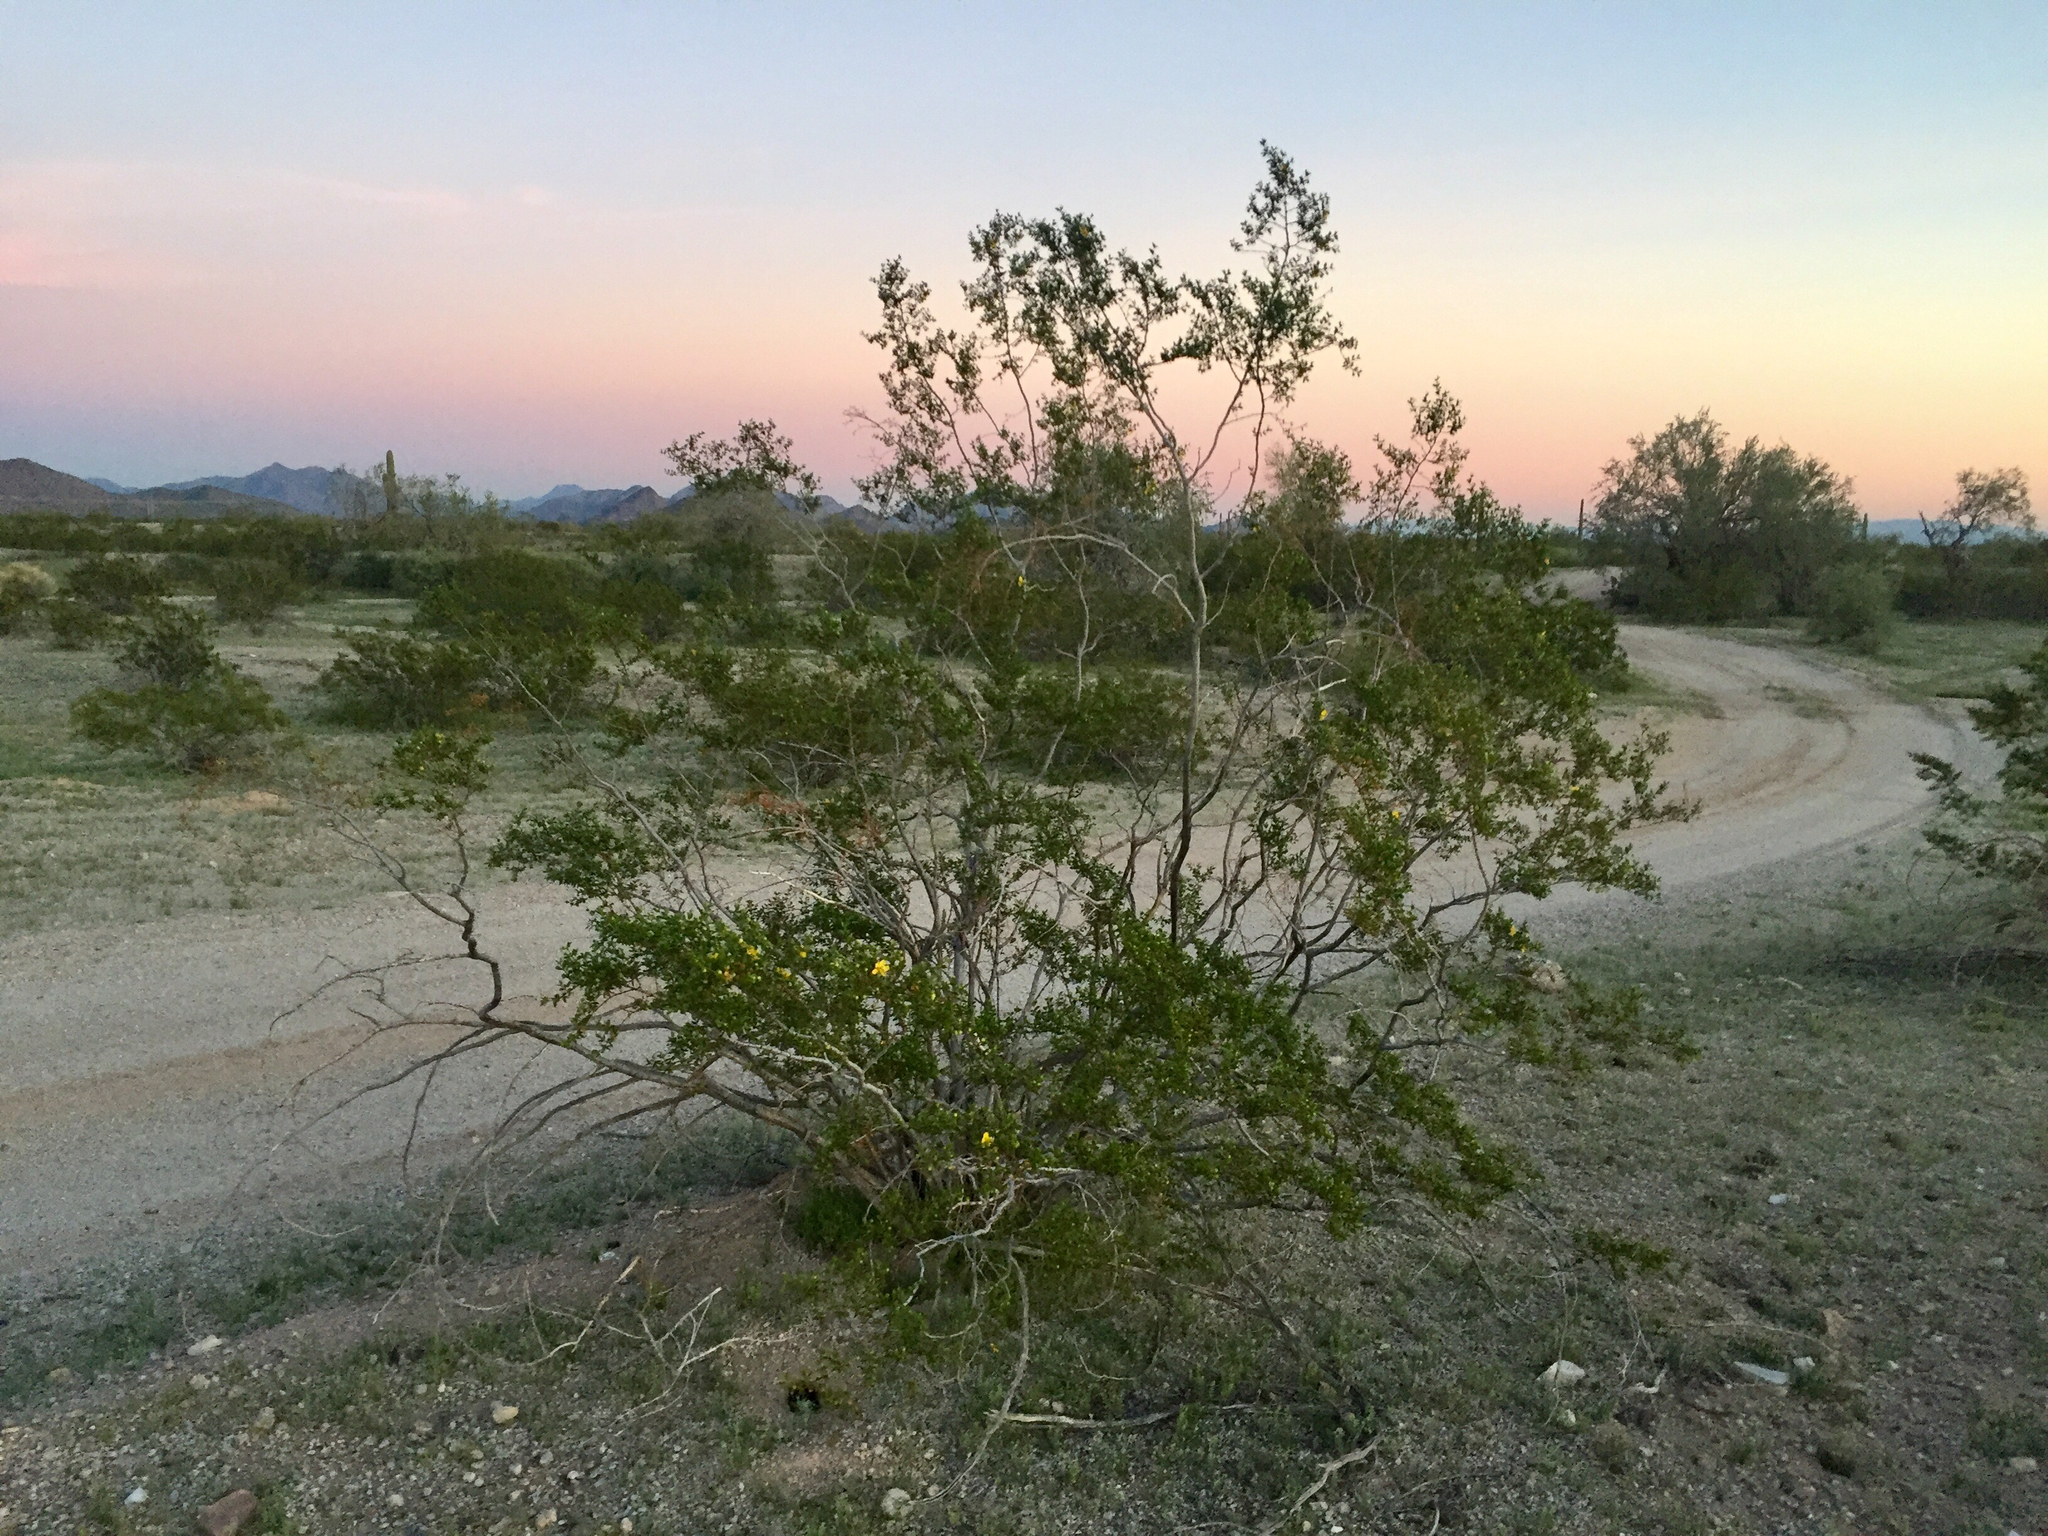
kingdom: Plantae
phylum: Tracheophyta
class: Magnoliopsida
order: Zygophyllales
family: Zygophyllaceae
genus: Larrea
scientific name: Larrea tridentata
